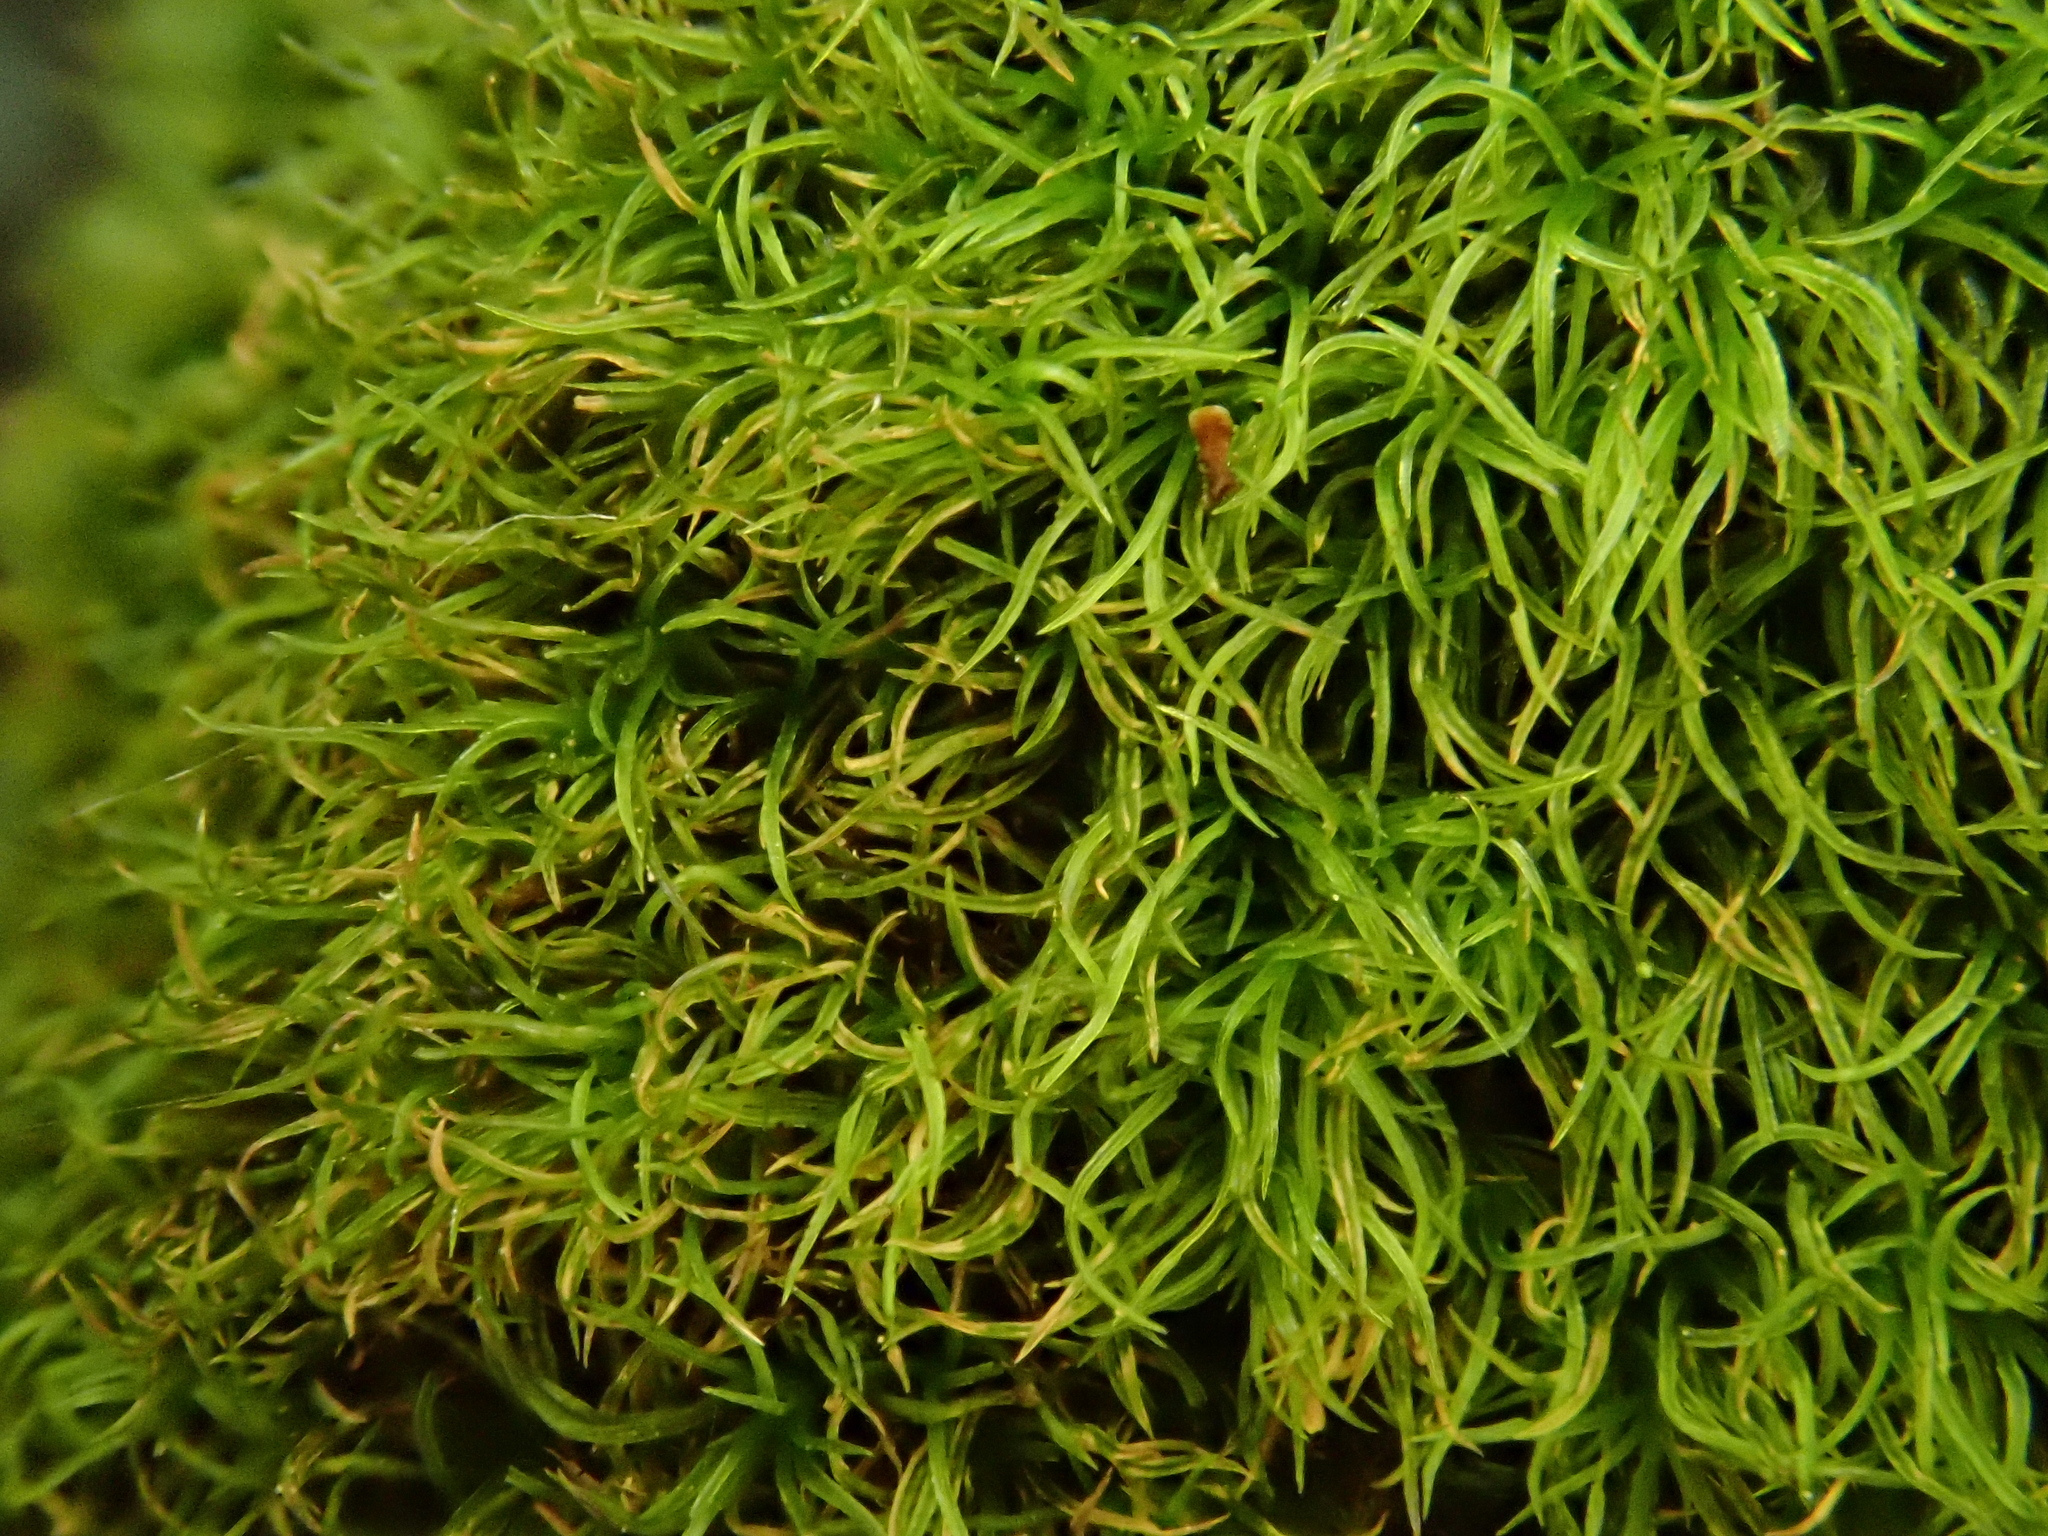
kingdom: Plantae
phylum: Bryophyta
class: Bryopsida
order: Dicranales
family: Amphidiaceae
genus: Amphidium
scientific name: Amphidium curvipes
